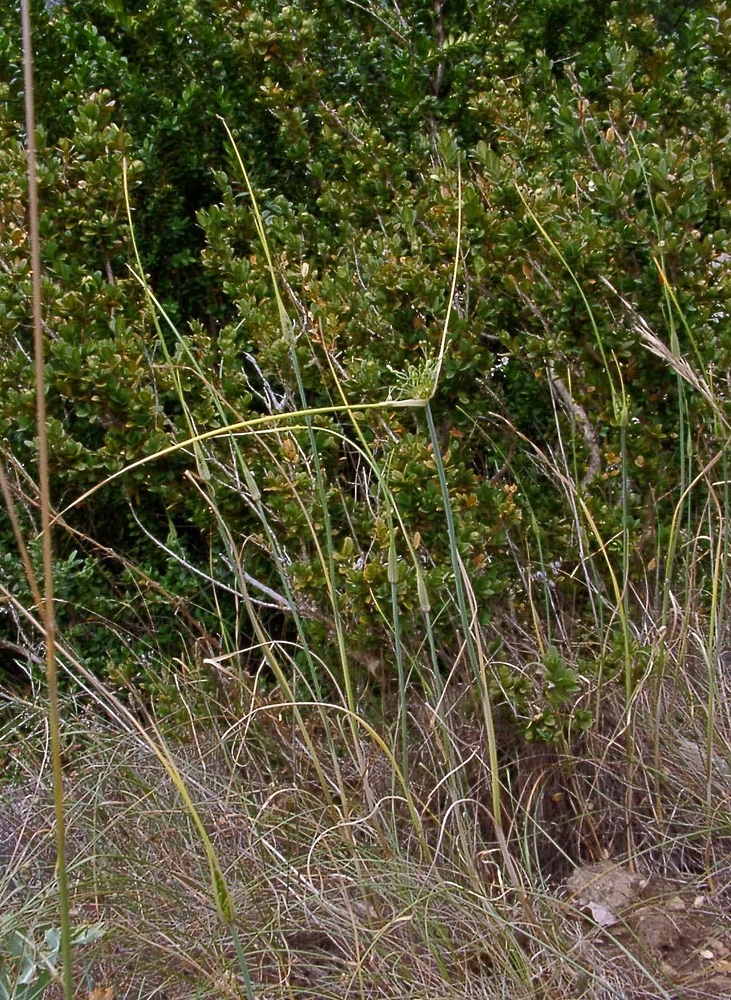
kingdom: Plantae
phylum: Tracheophyta
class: Liliopsida
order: Asparagales
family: Amaryllidaceae
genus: Allium
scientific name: Allium oleraceum
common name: Field garlic
